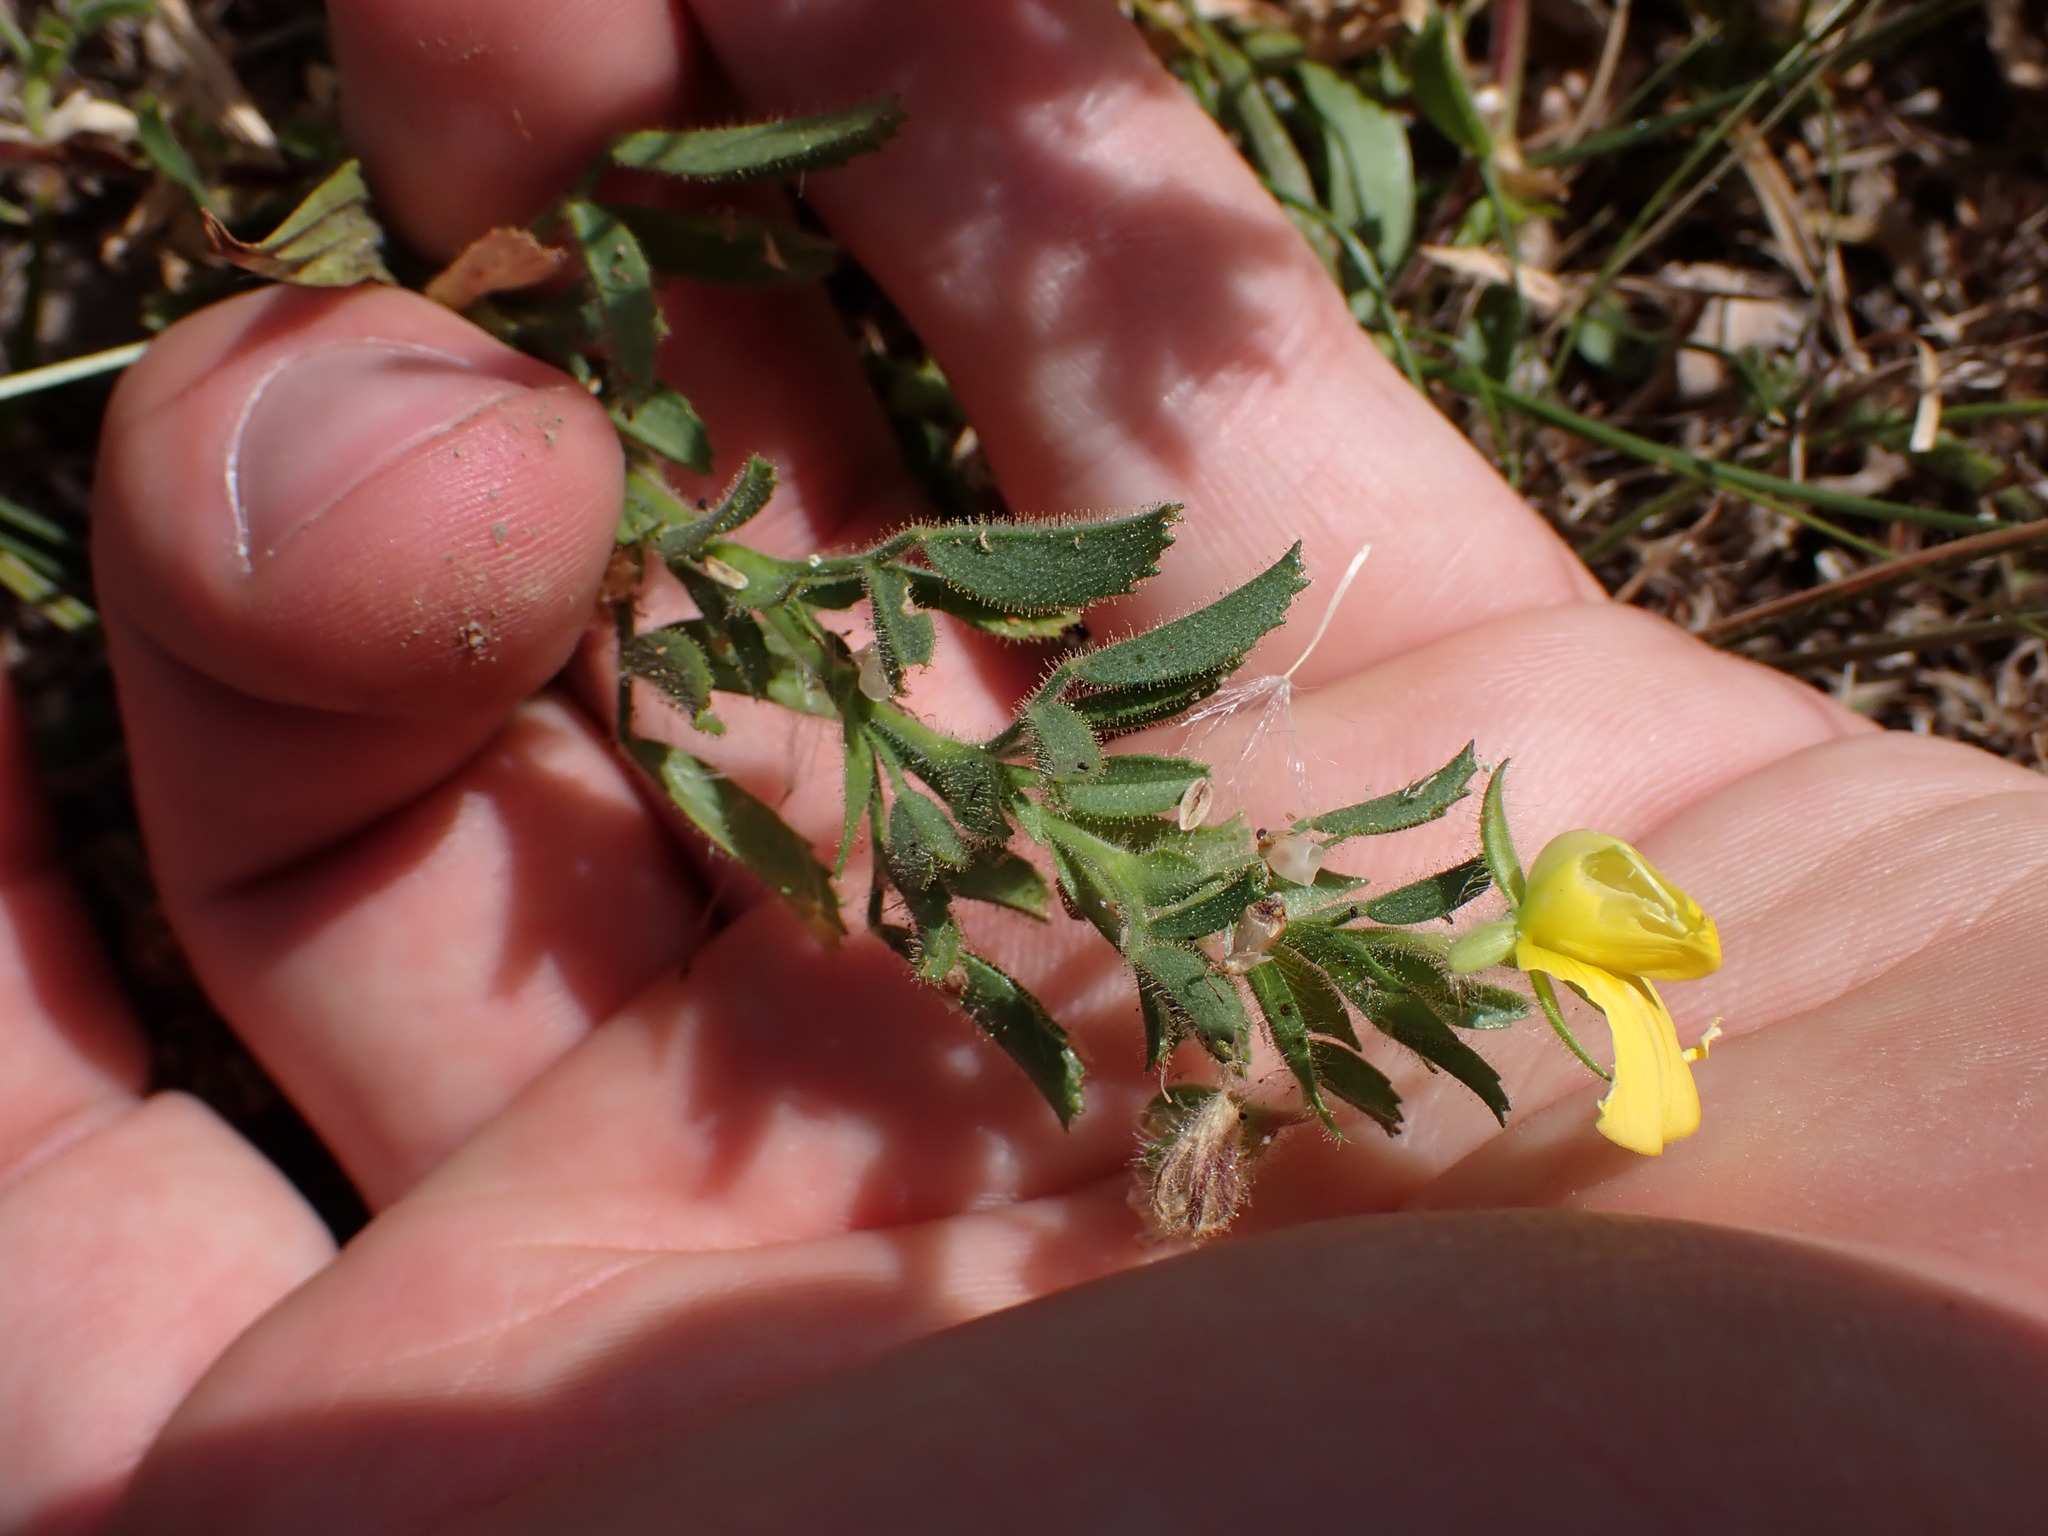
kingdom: Plantae
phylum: Tracheophyta
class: Magnoliopsida
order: Fabales
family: Fabaceae
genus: Ononis
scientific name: Ononis natrix
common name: Yellow restharrow
